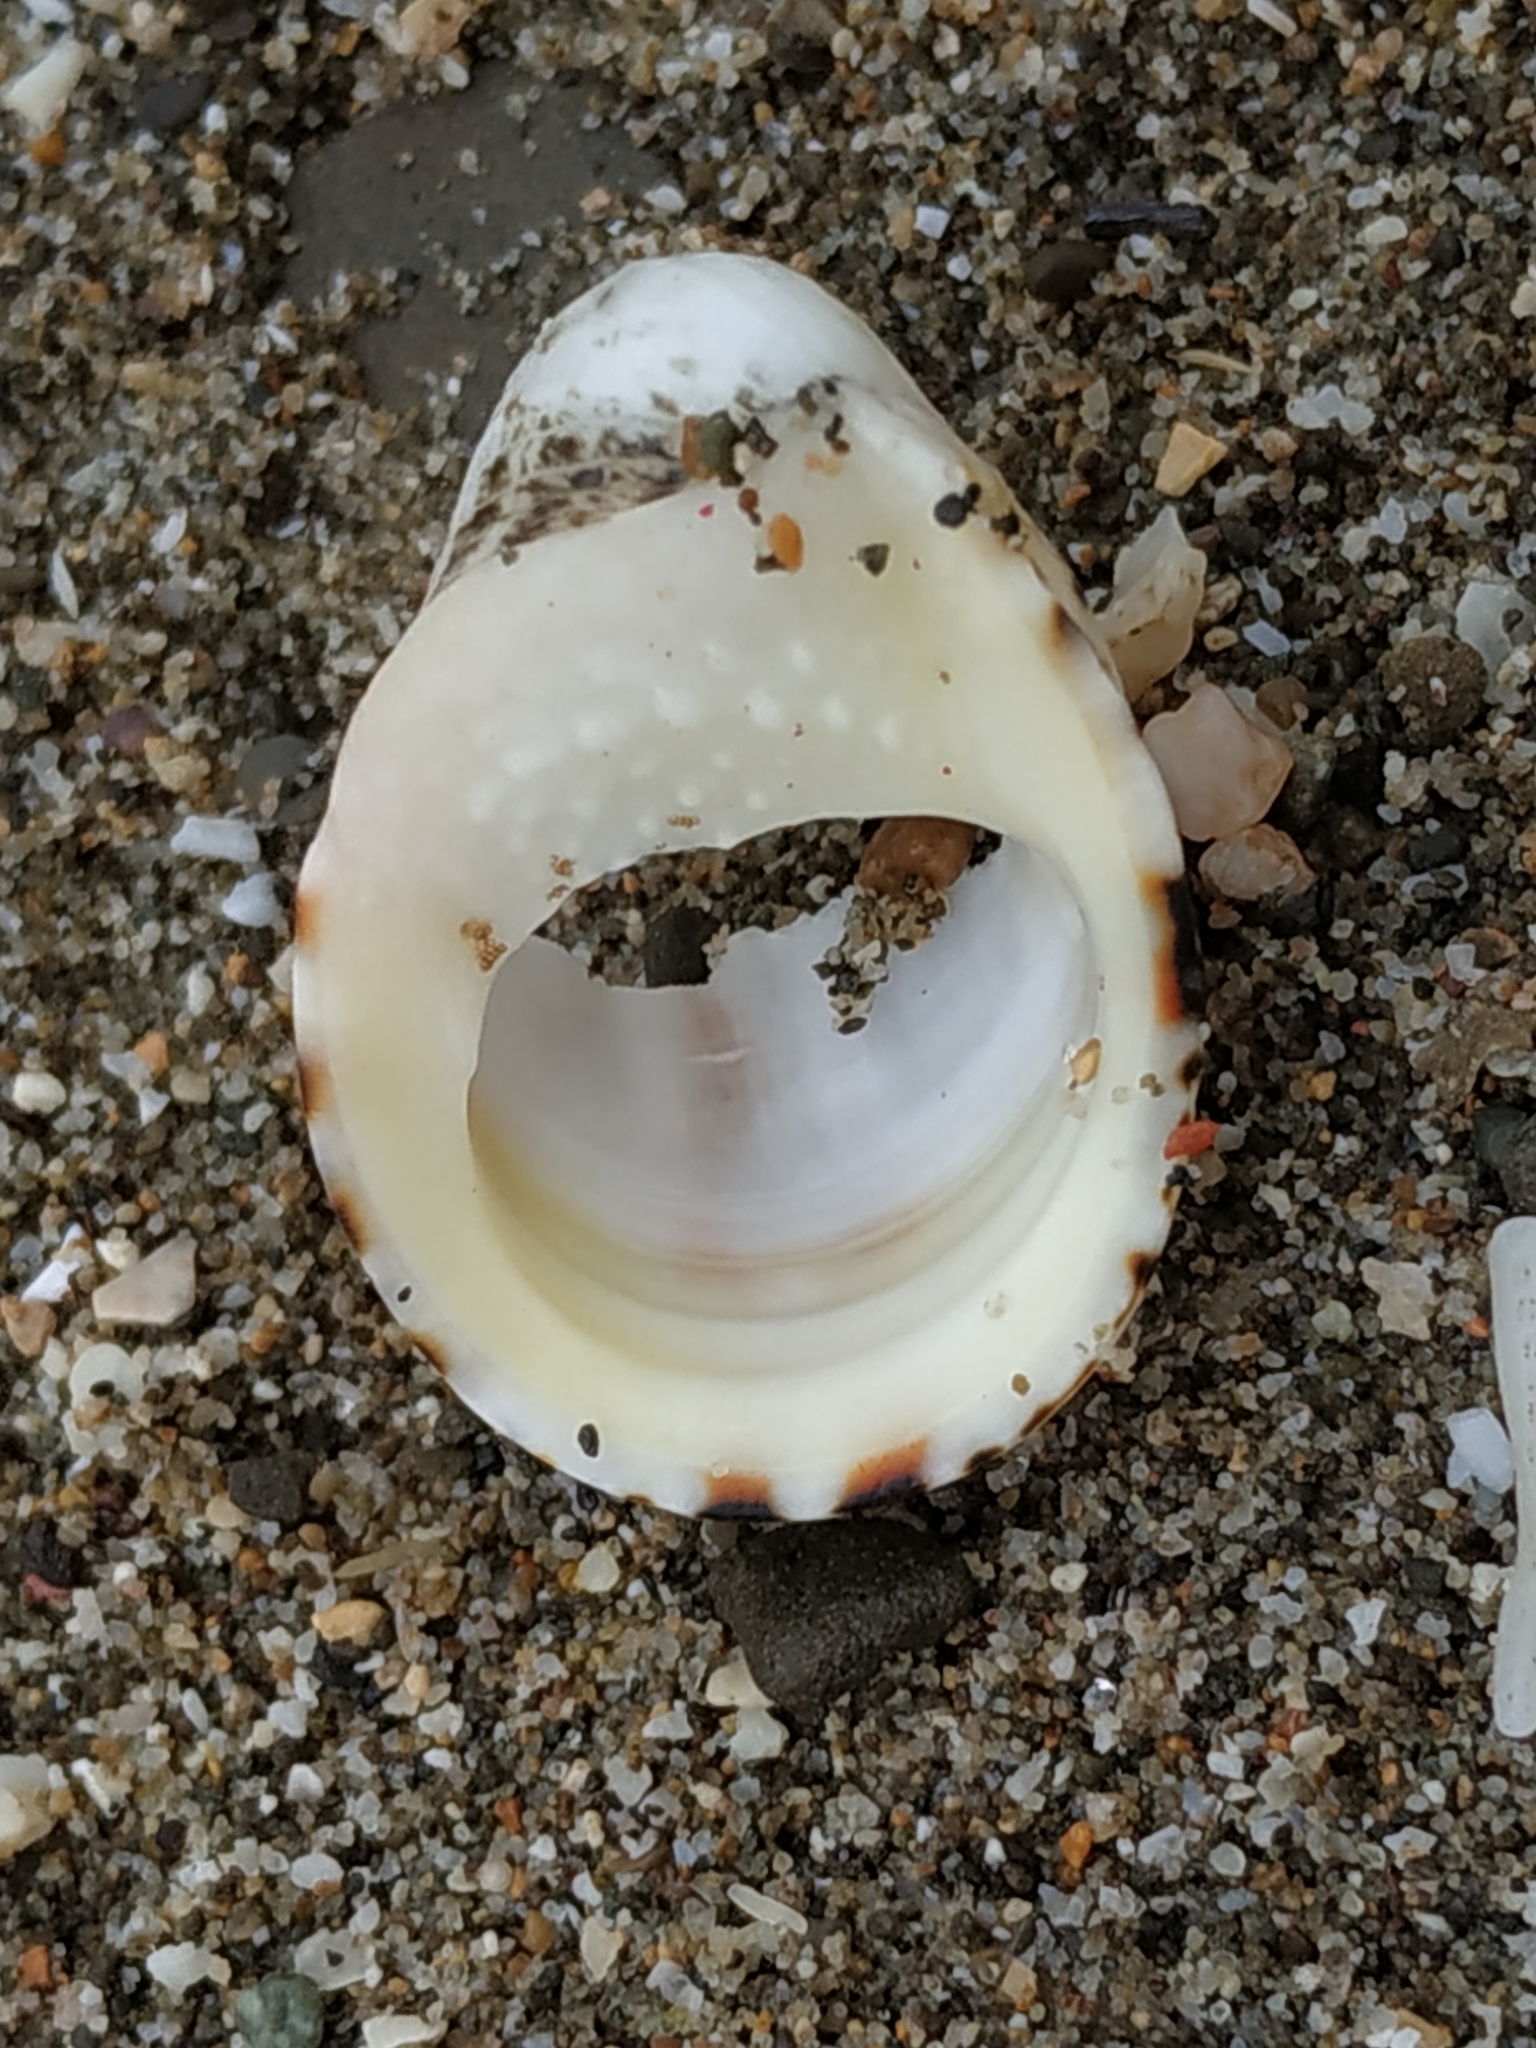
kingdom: Animalia
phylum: Mollusca
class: Gastropoda
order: Cycloneritida
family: Neritidae
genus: Nerita
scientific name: Nerita albicilla
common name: Blotched nerite
